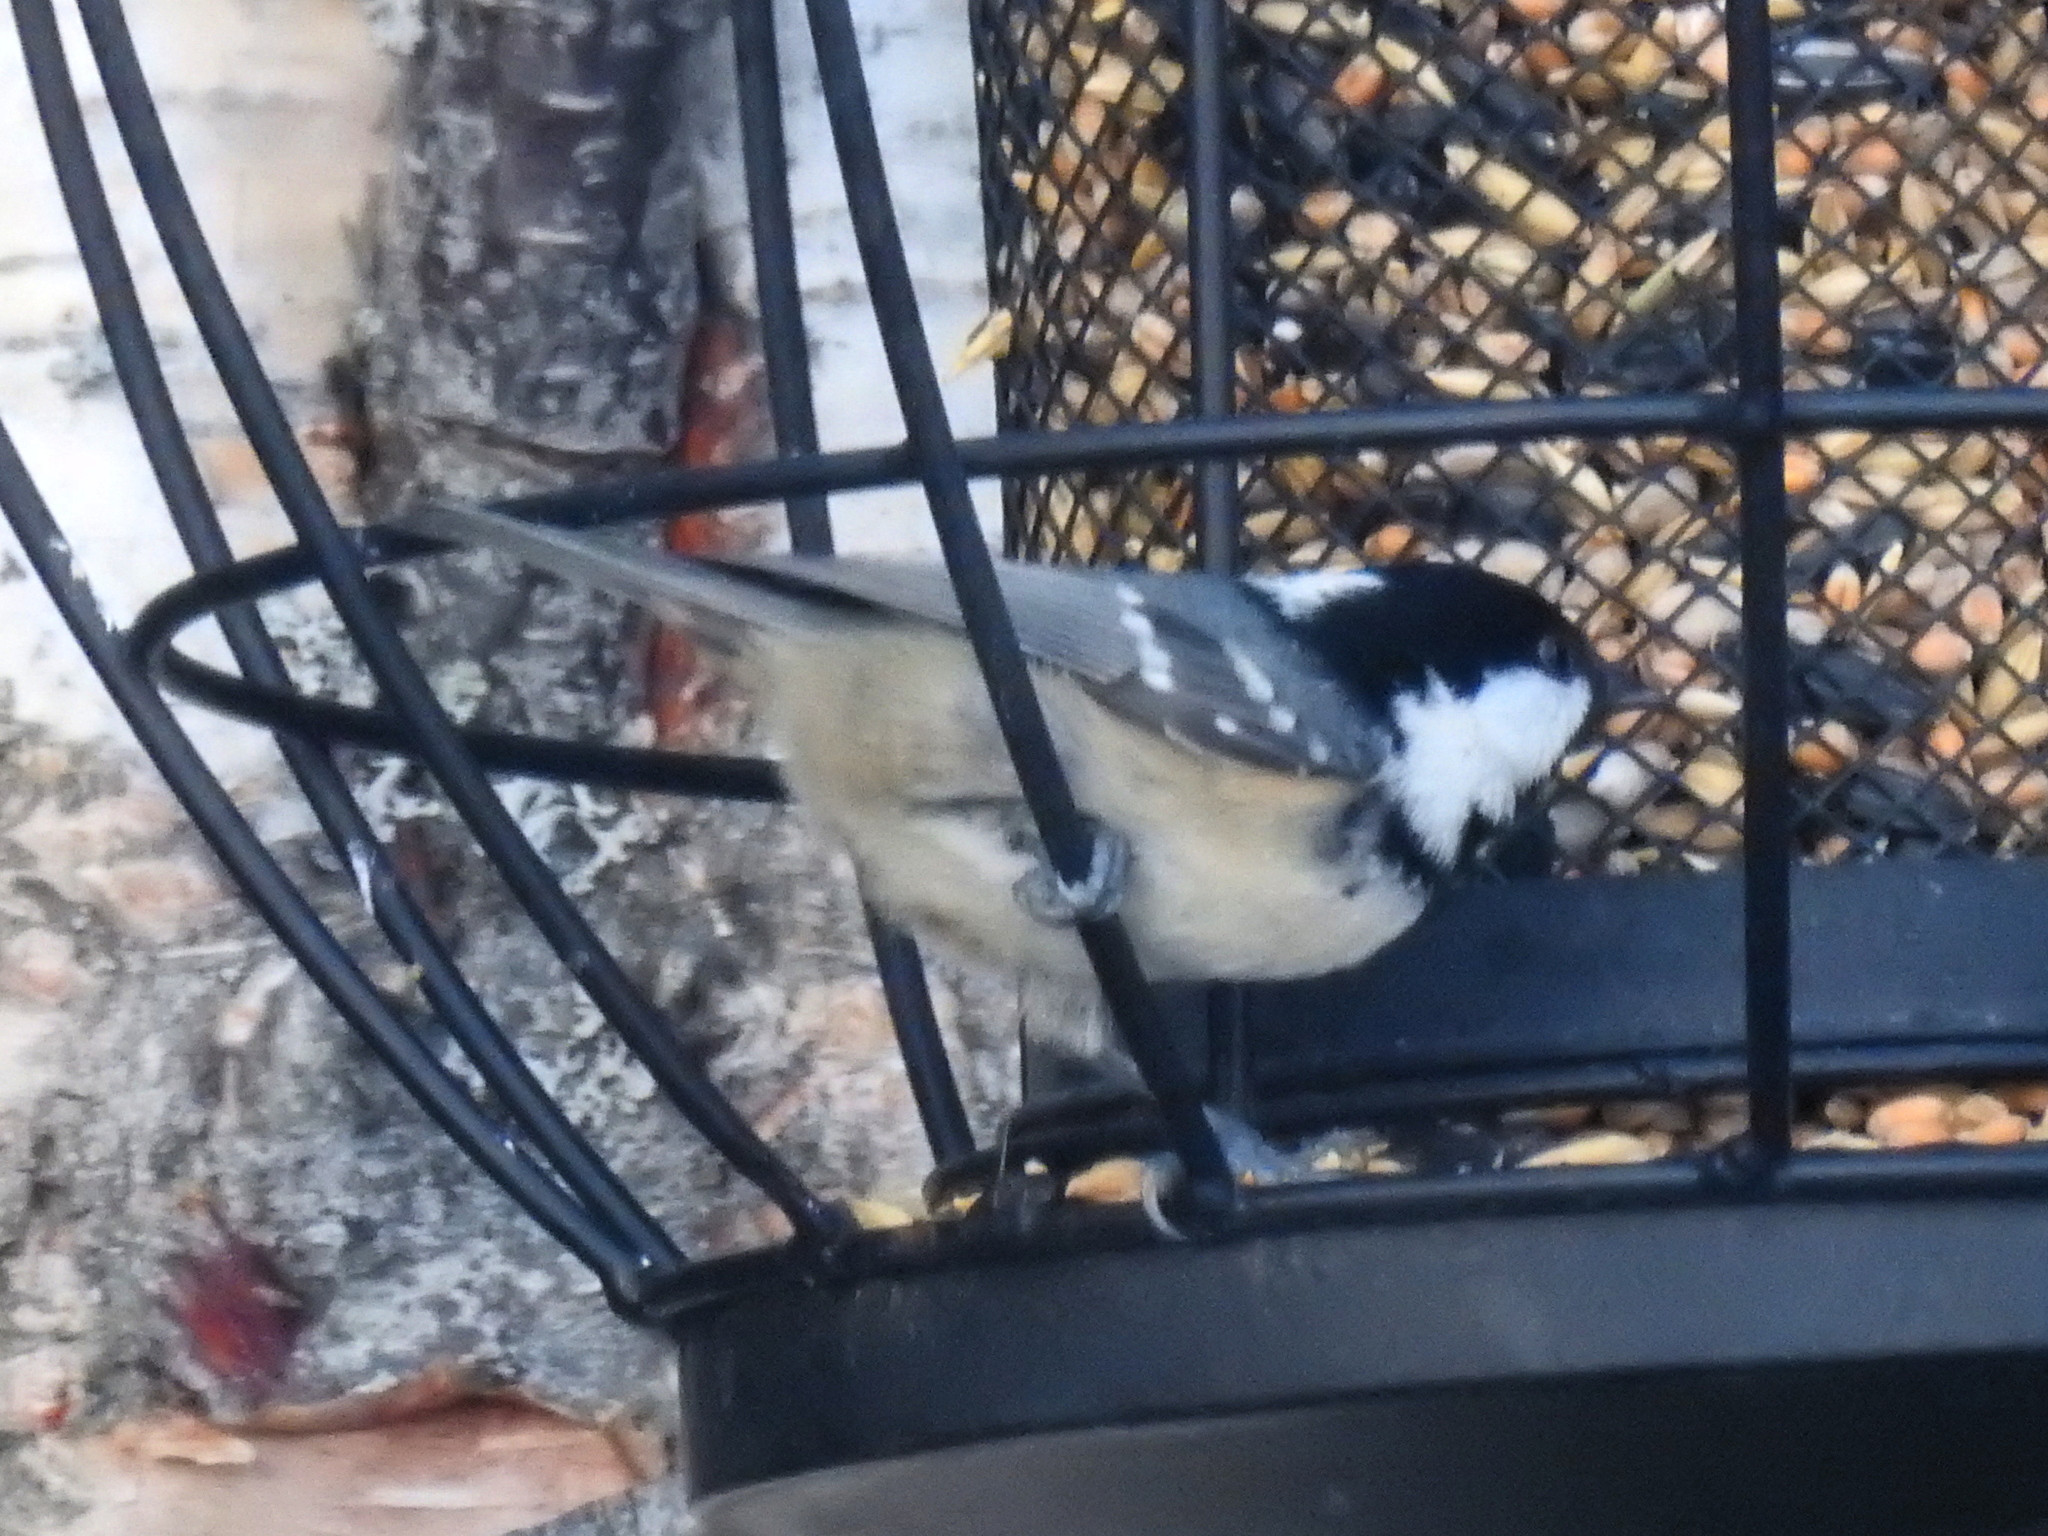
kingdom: Animalia
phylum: Chordata
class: Aves
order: Passeriformes
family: Paridae
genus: Periparus
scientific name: Periparus ater
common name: Coal tit
